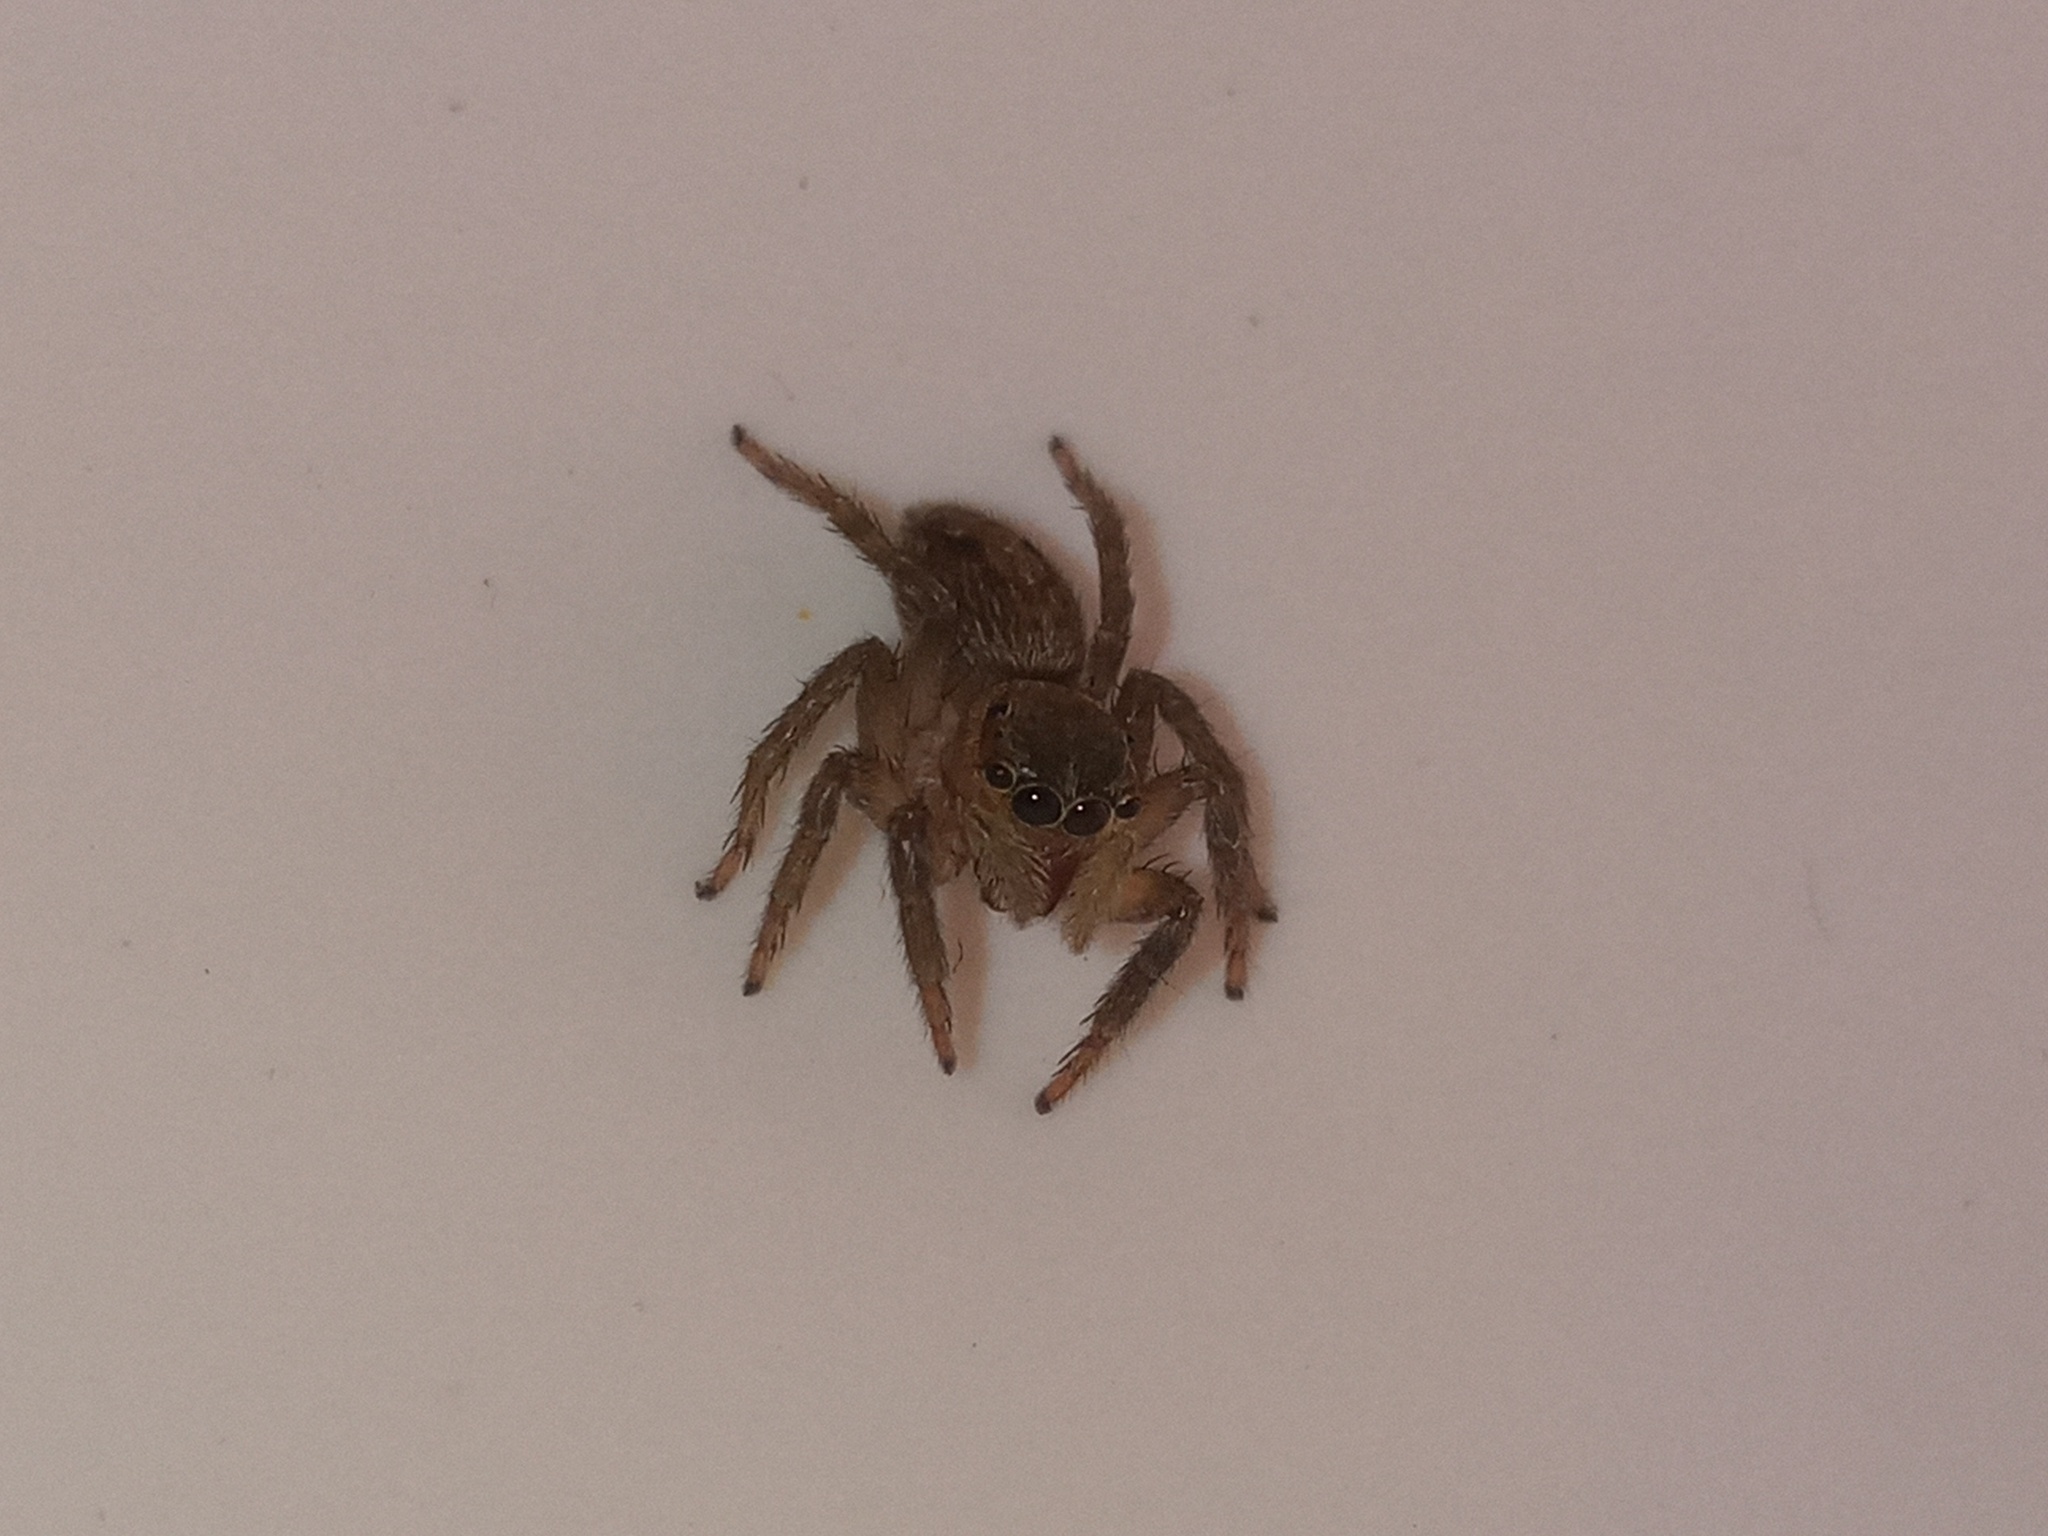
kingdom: Animalia
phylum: Arthropoda
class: Arachnida
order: Araneae
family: Salticidae
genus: Hasarius
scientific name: Hasarius adansoni
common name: Jumping spider
